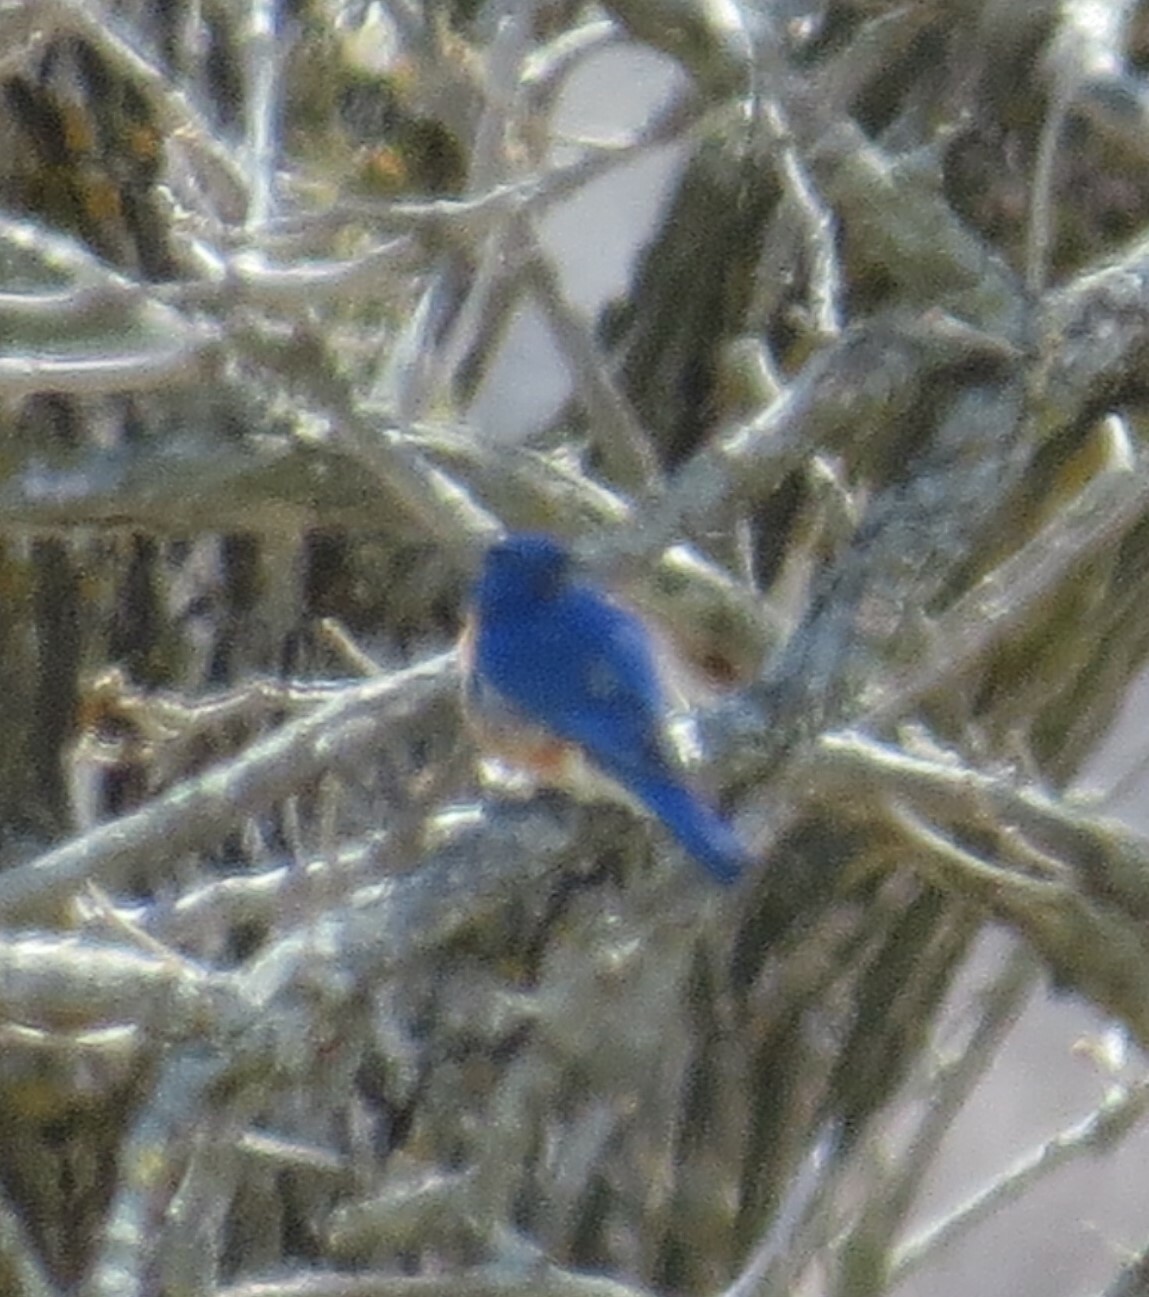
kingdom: Animalia
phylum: Chordata
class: Aves
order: Passeriformes
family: Turdidae
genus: Sialia
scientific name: Sialia sialis
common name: Eastern bluebird
